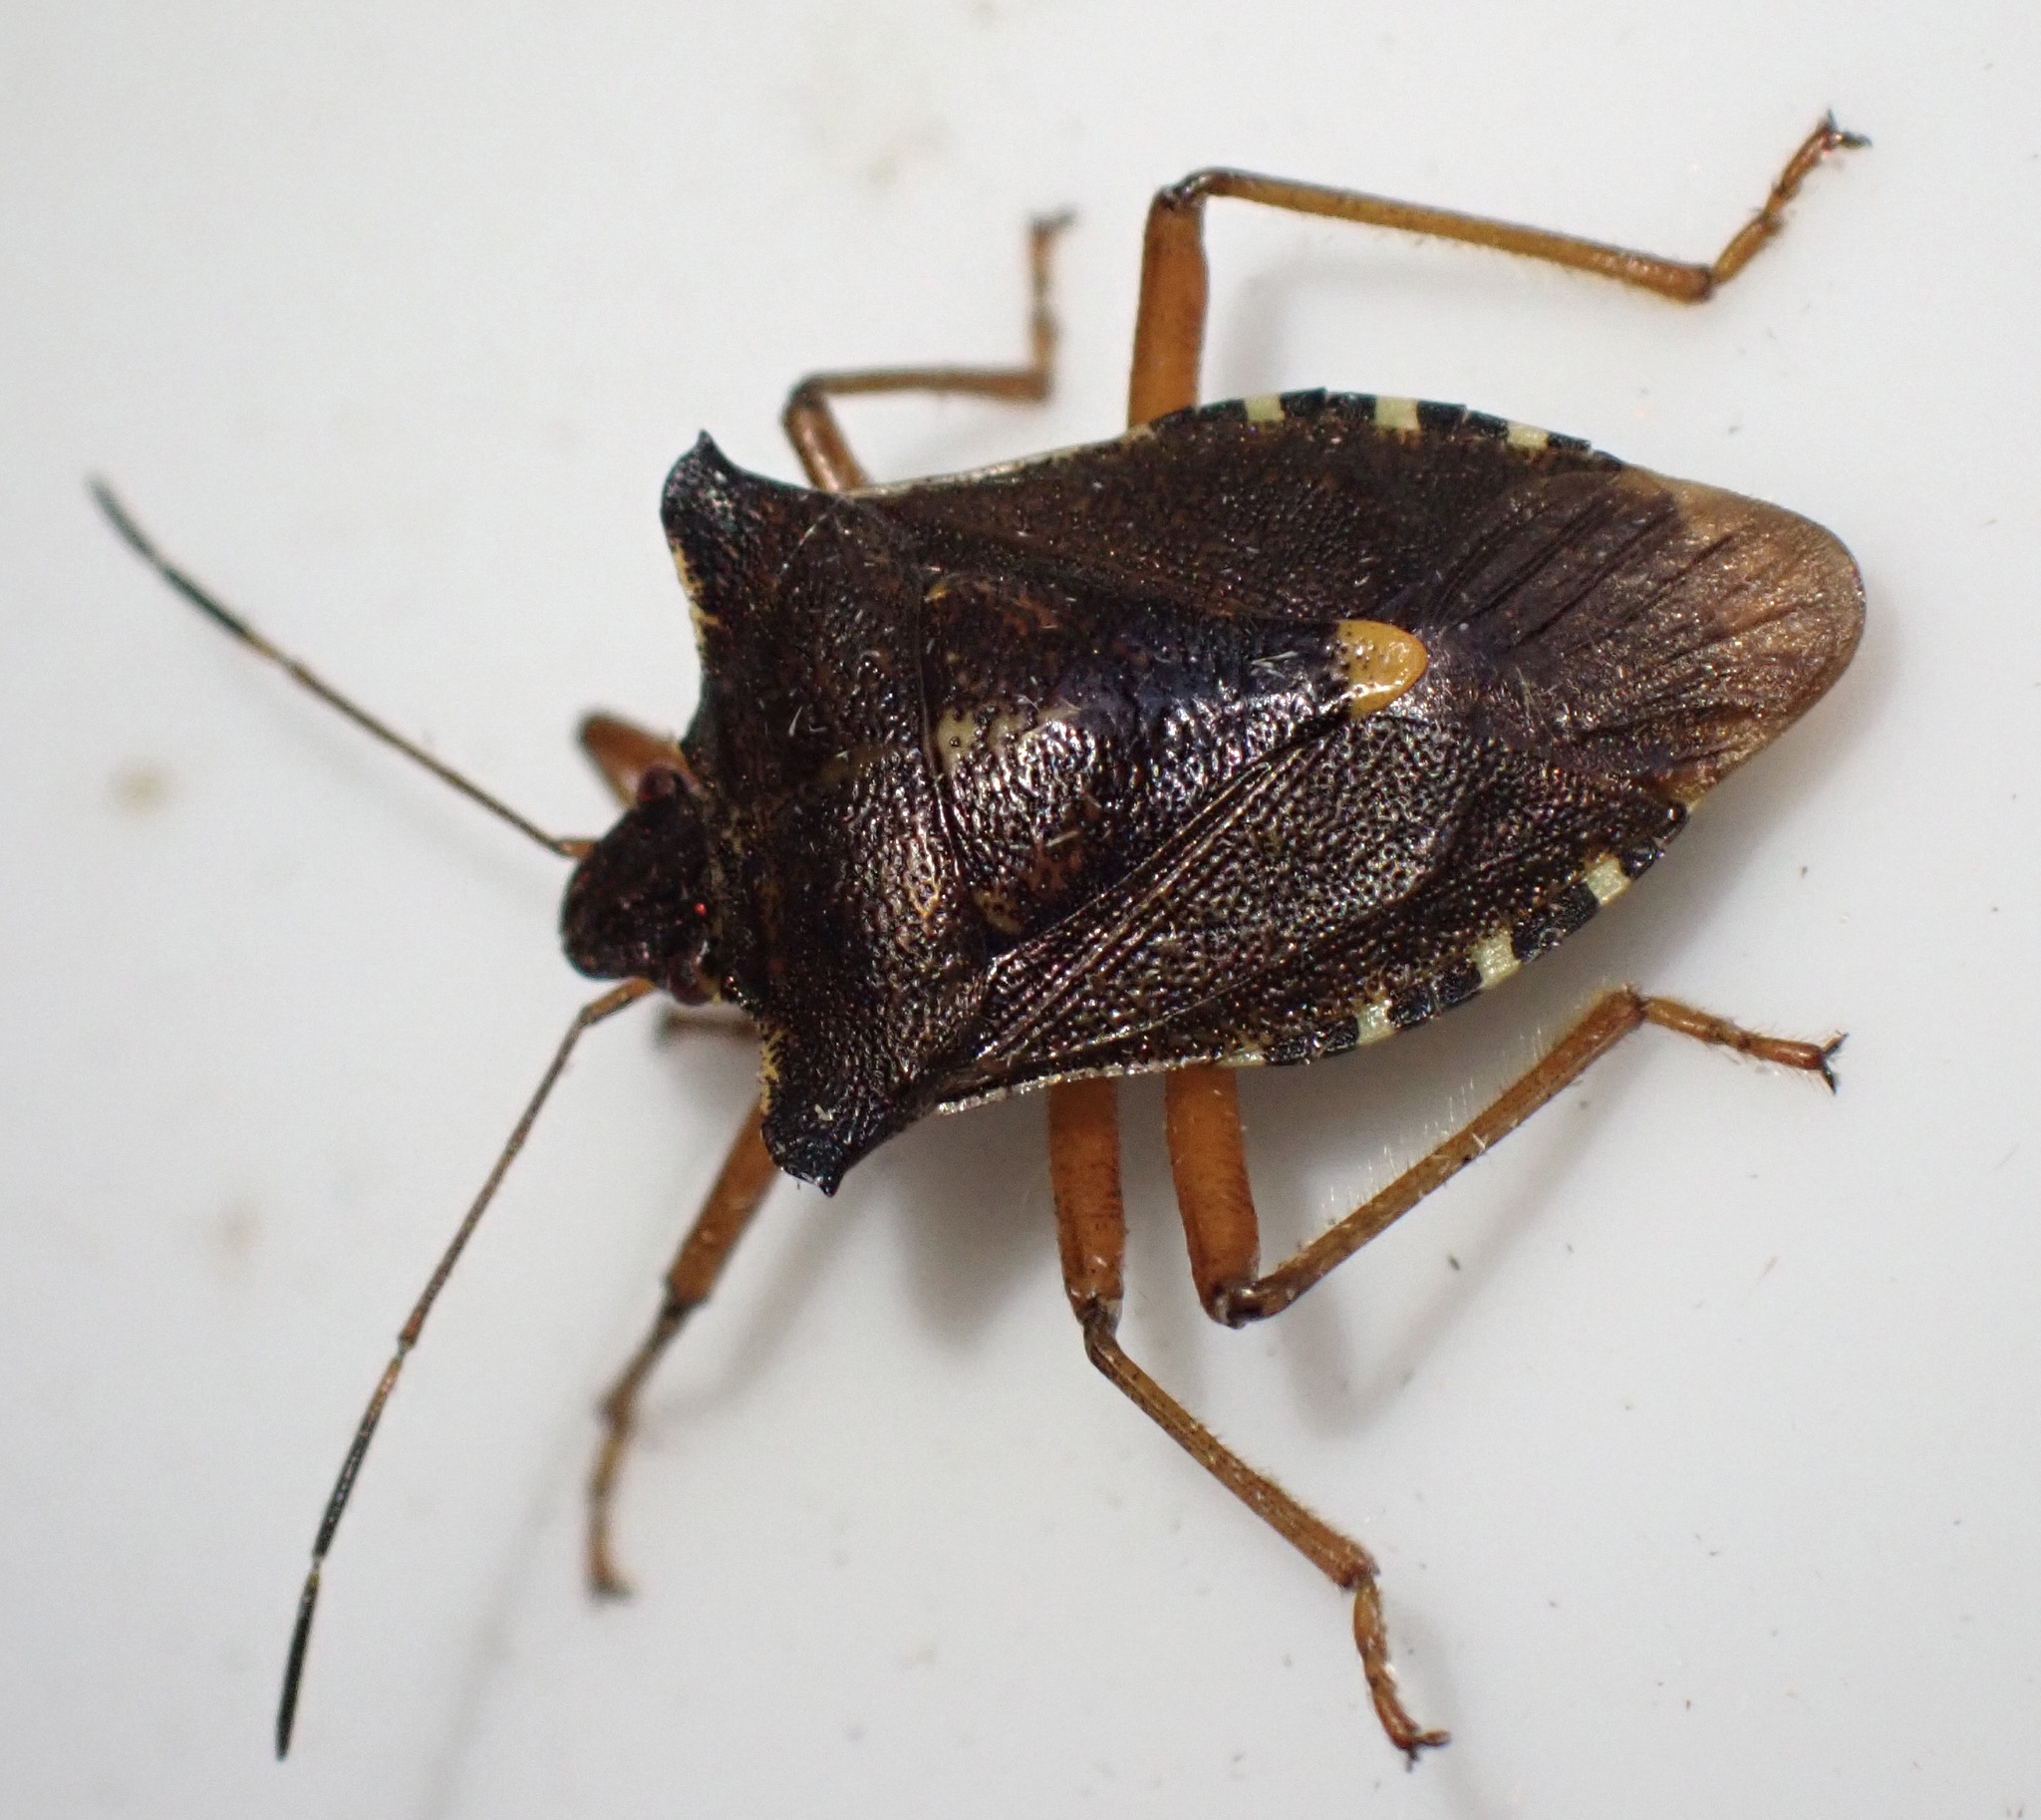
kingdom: Animalia
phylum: Arthropoda
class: Insecta
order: Hemiptera
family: Pentatomidae
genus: Pentatoma
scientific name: Pentatoma rufipes
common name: Forest bug
